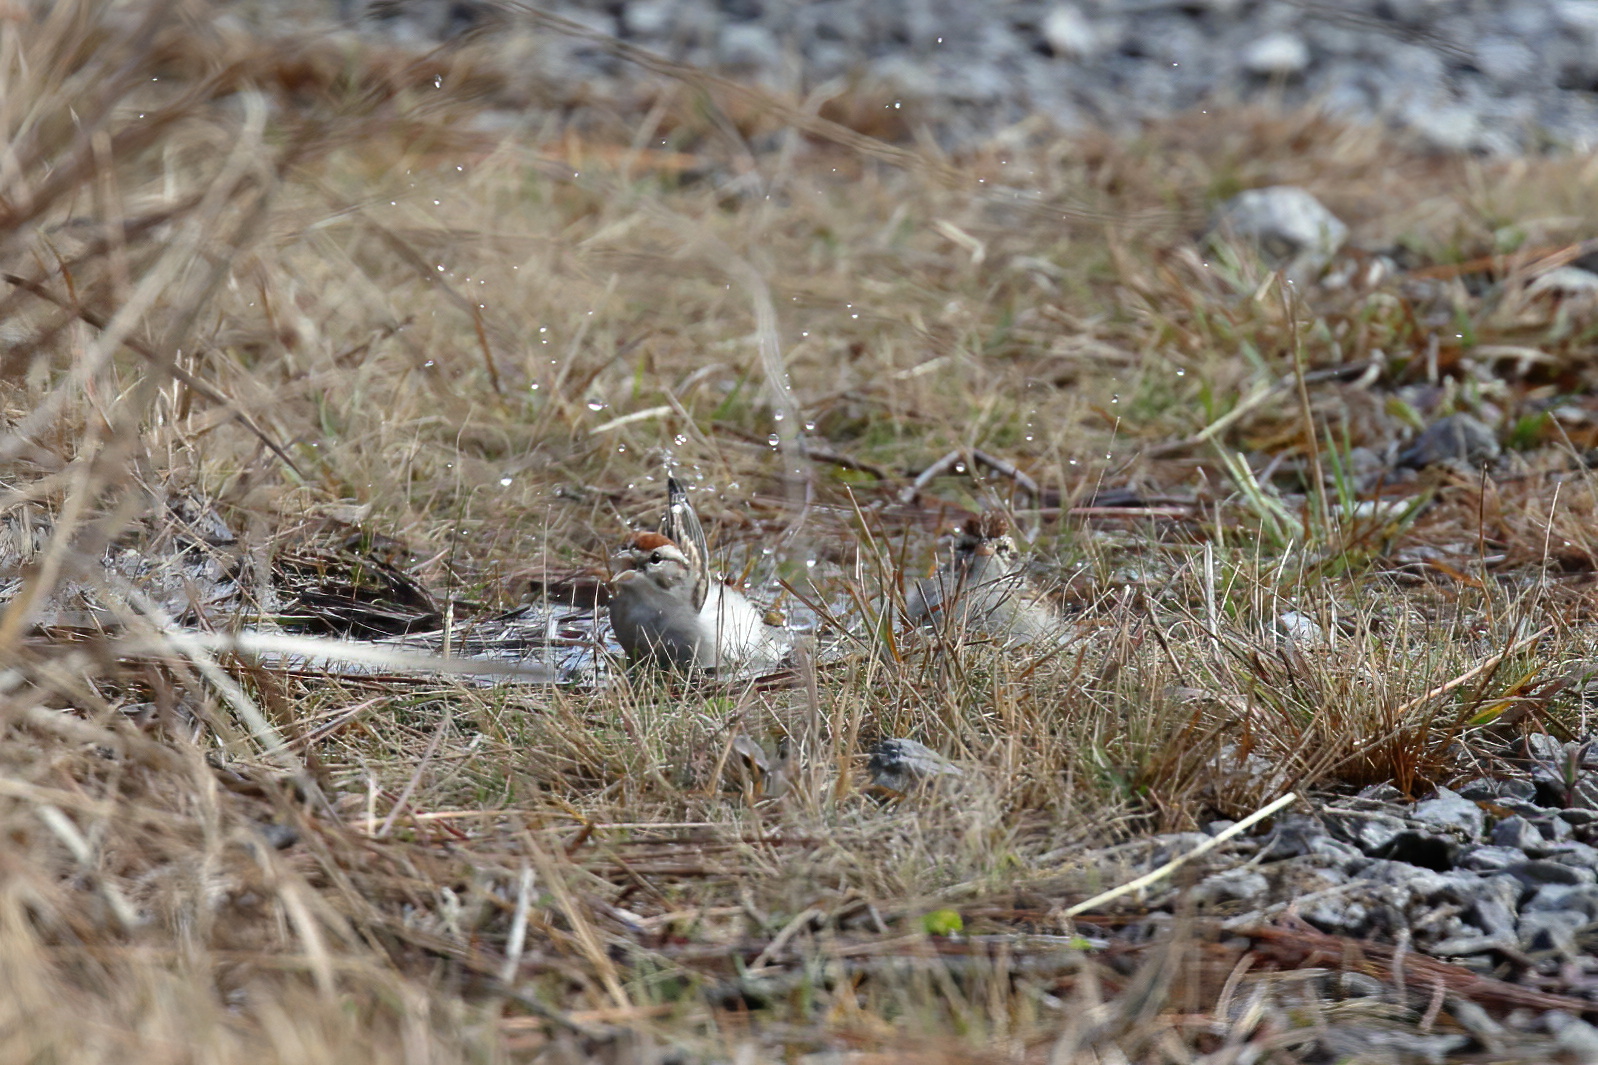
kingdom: Animalia
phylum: Chordata
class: Aves
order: Passeriformes
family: Passerellidae
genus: Spizella
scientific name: Spizella passerina
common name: Chipping sparrow
